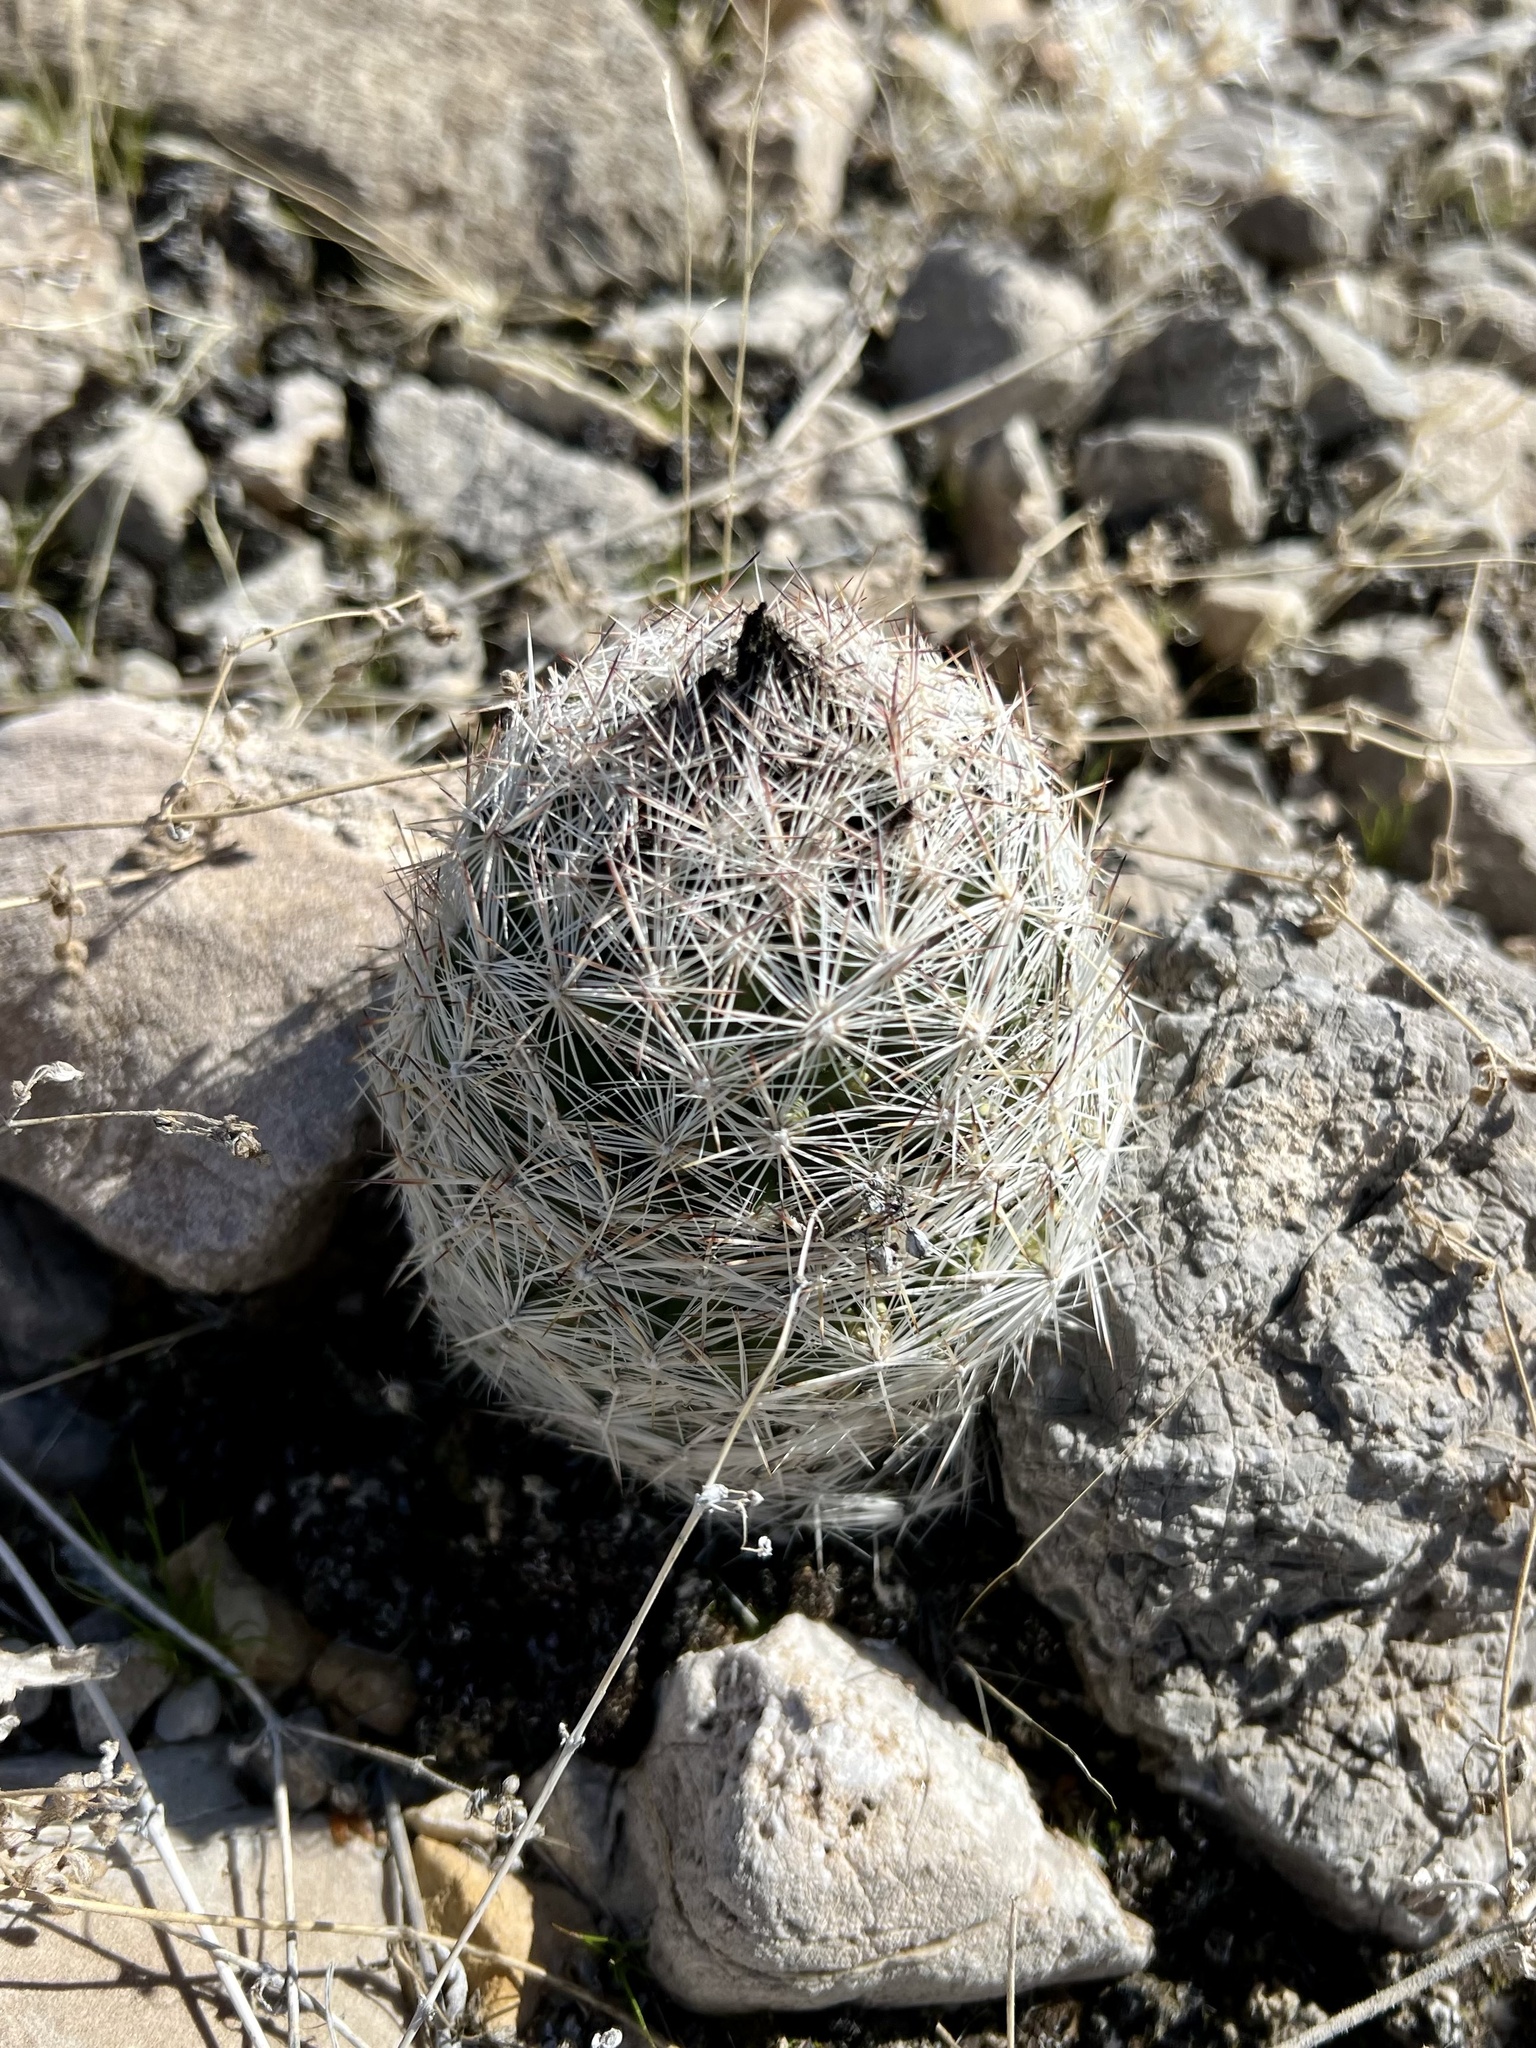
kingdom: Plantae
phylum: Tracheophyta
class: Magnoliopsida
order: Caryophyllales
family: Cactaceae
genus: Pelecyphora
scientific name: Pelecyphora dasyacantha
